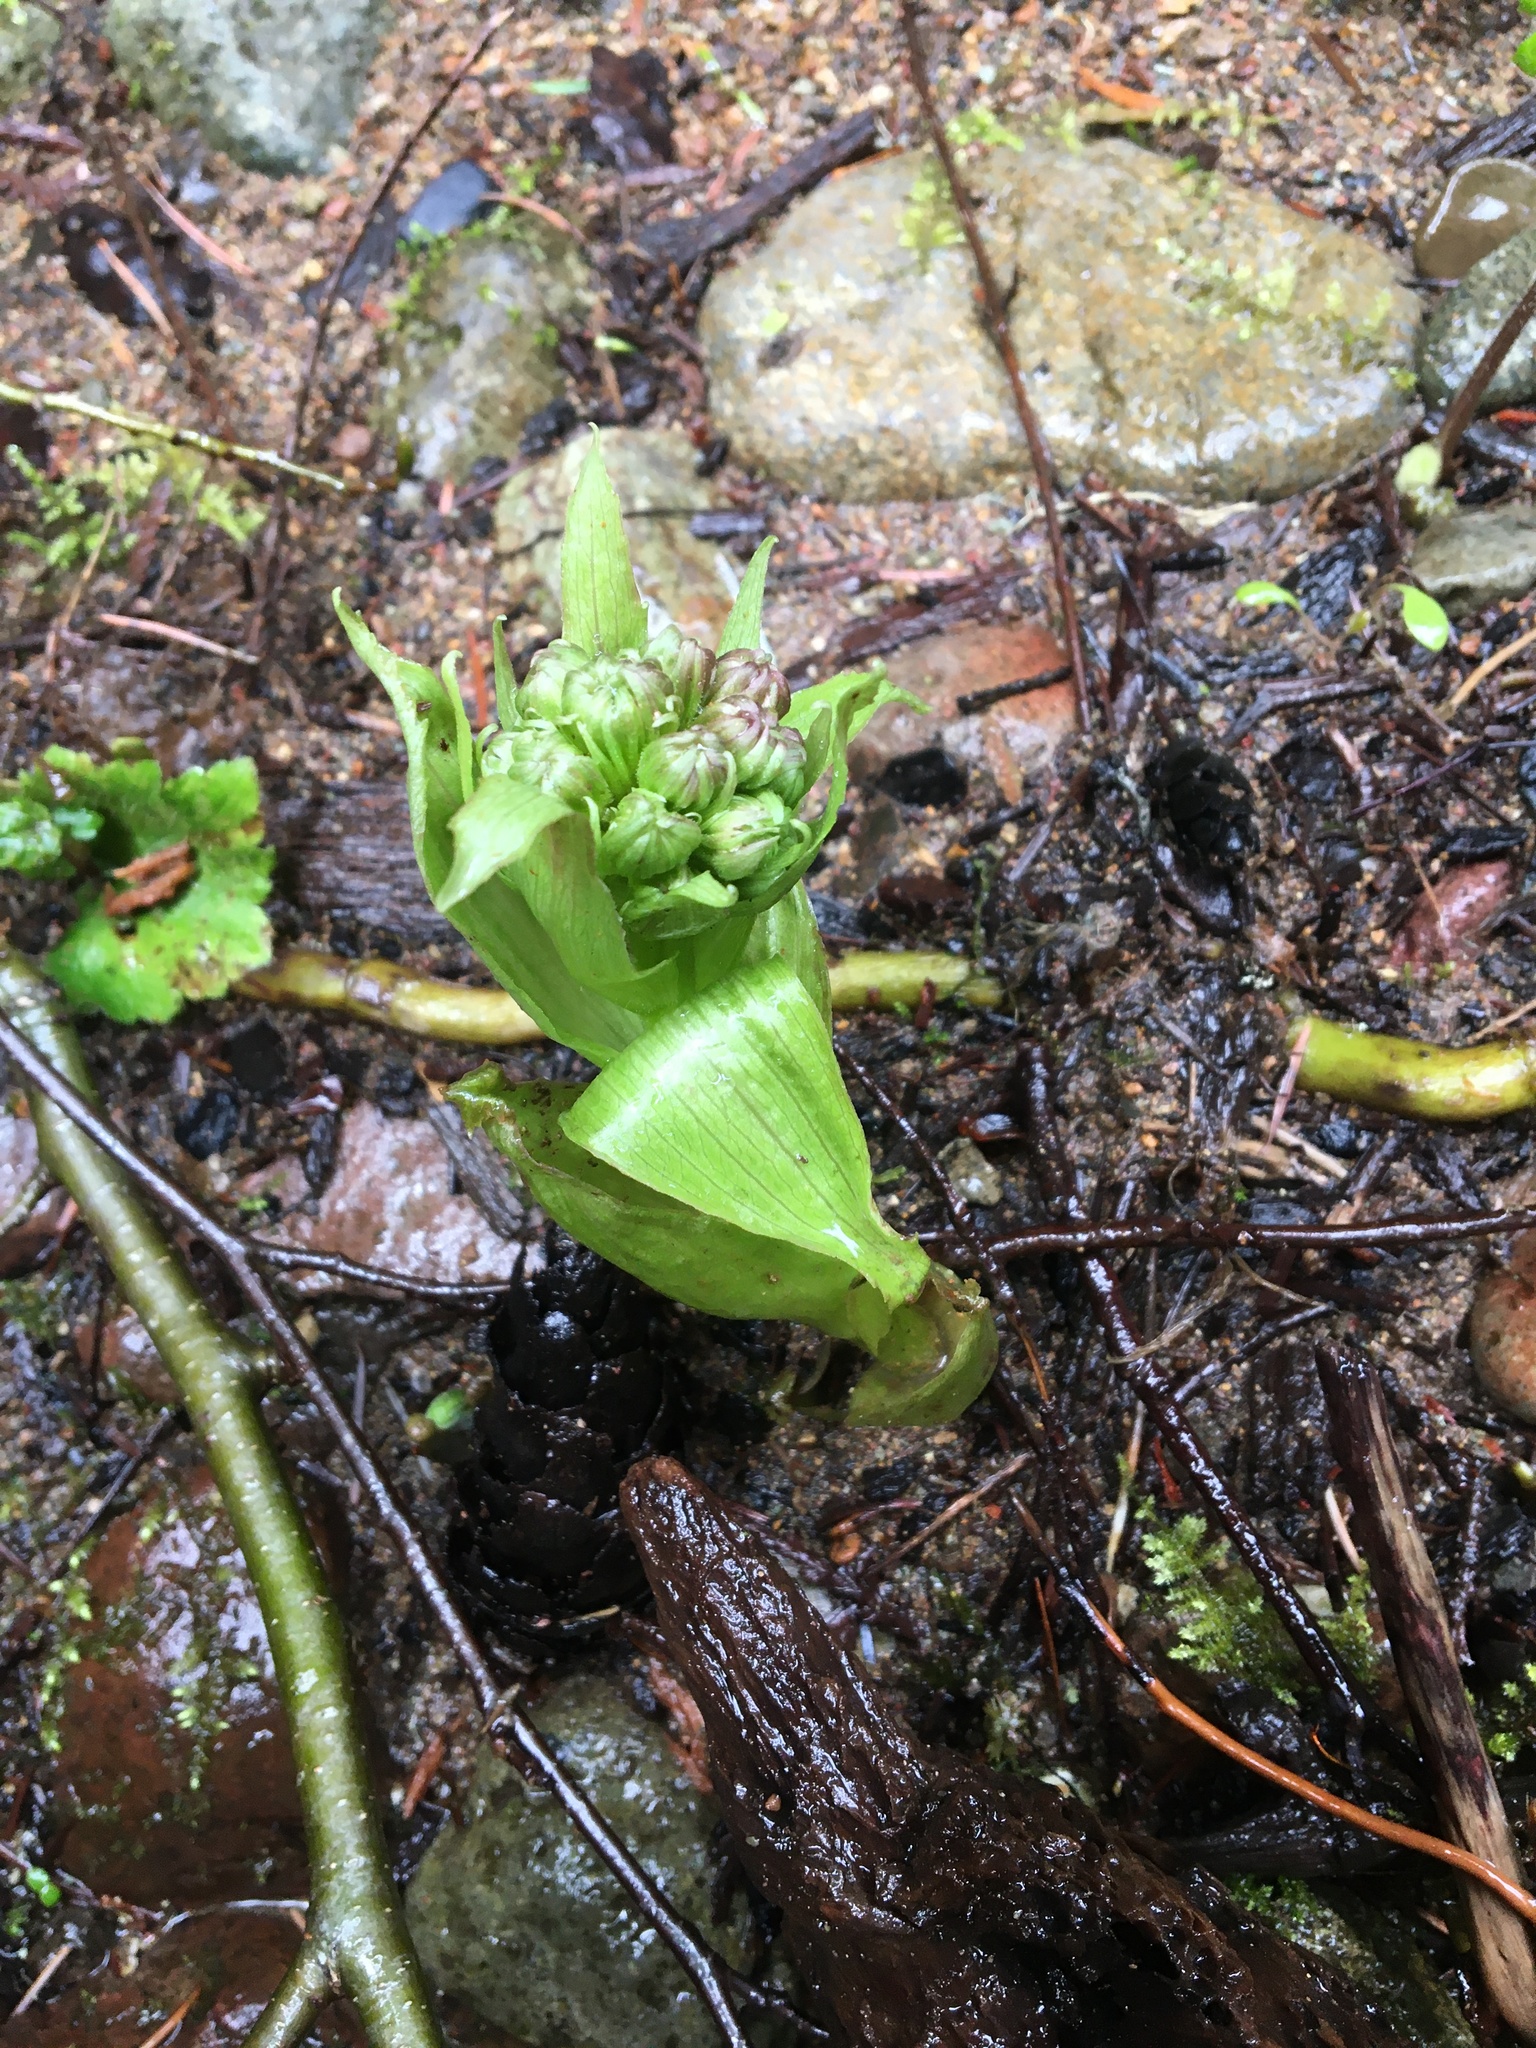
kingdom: Plantae
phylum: Tracheophyta
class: Magnoliopsida
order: Asterales
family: Asteraceae
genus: Petasites
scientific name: Petasites frigidus
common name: Arctic butterbur
